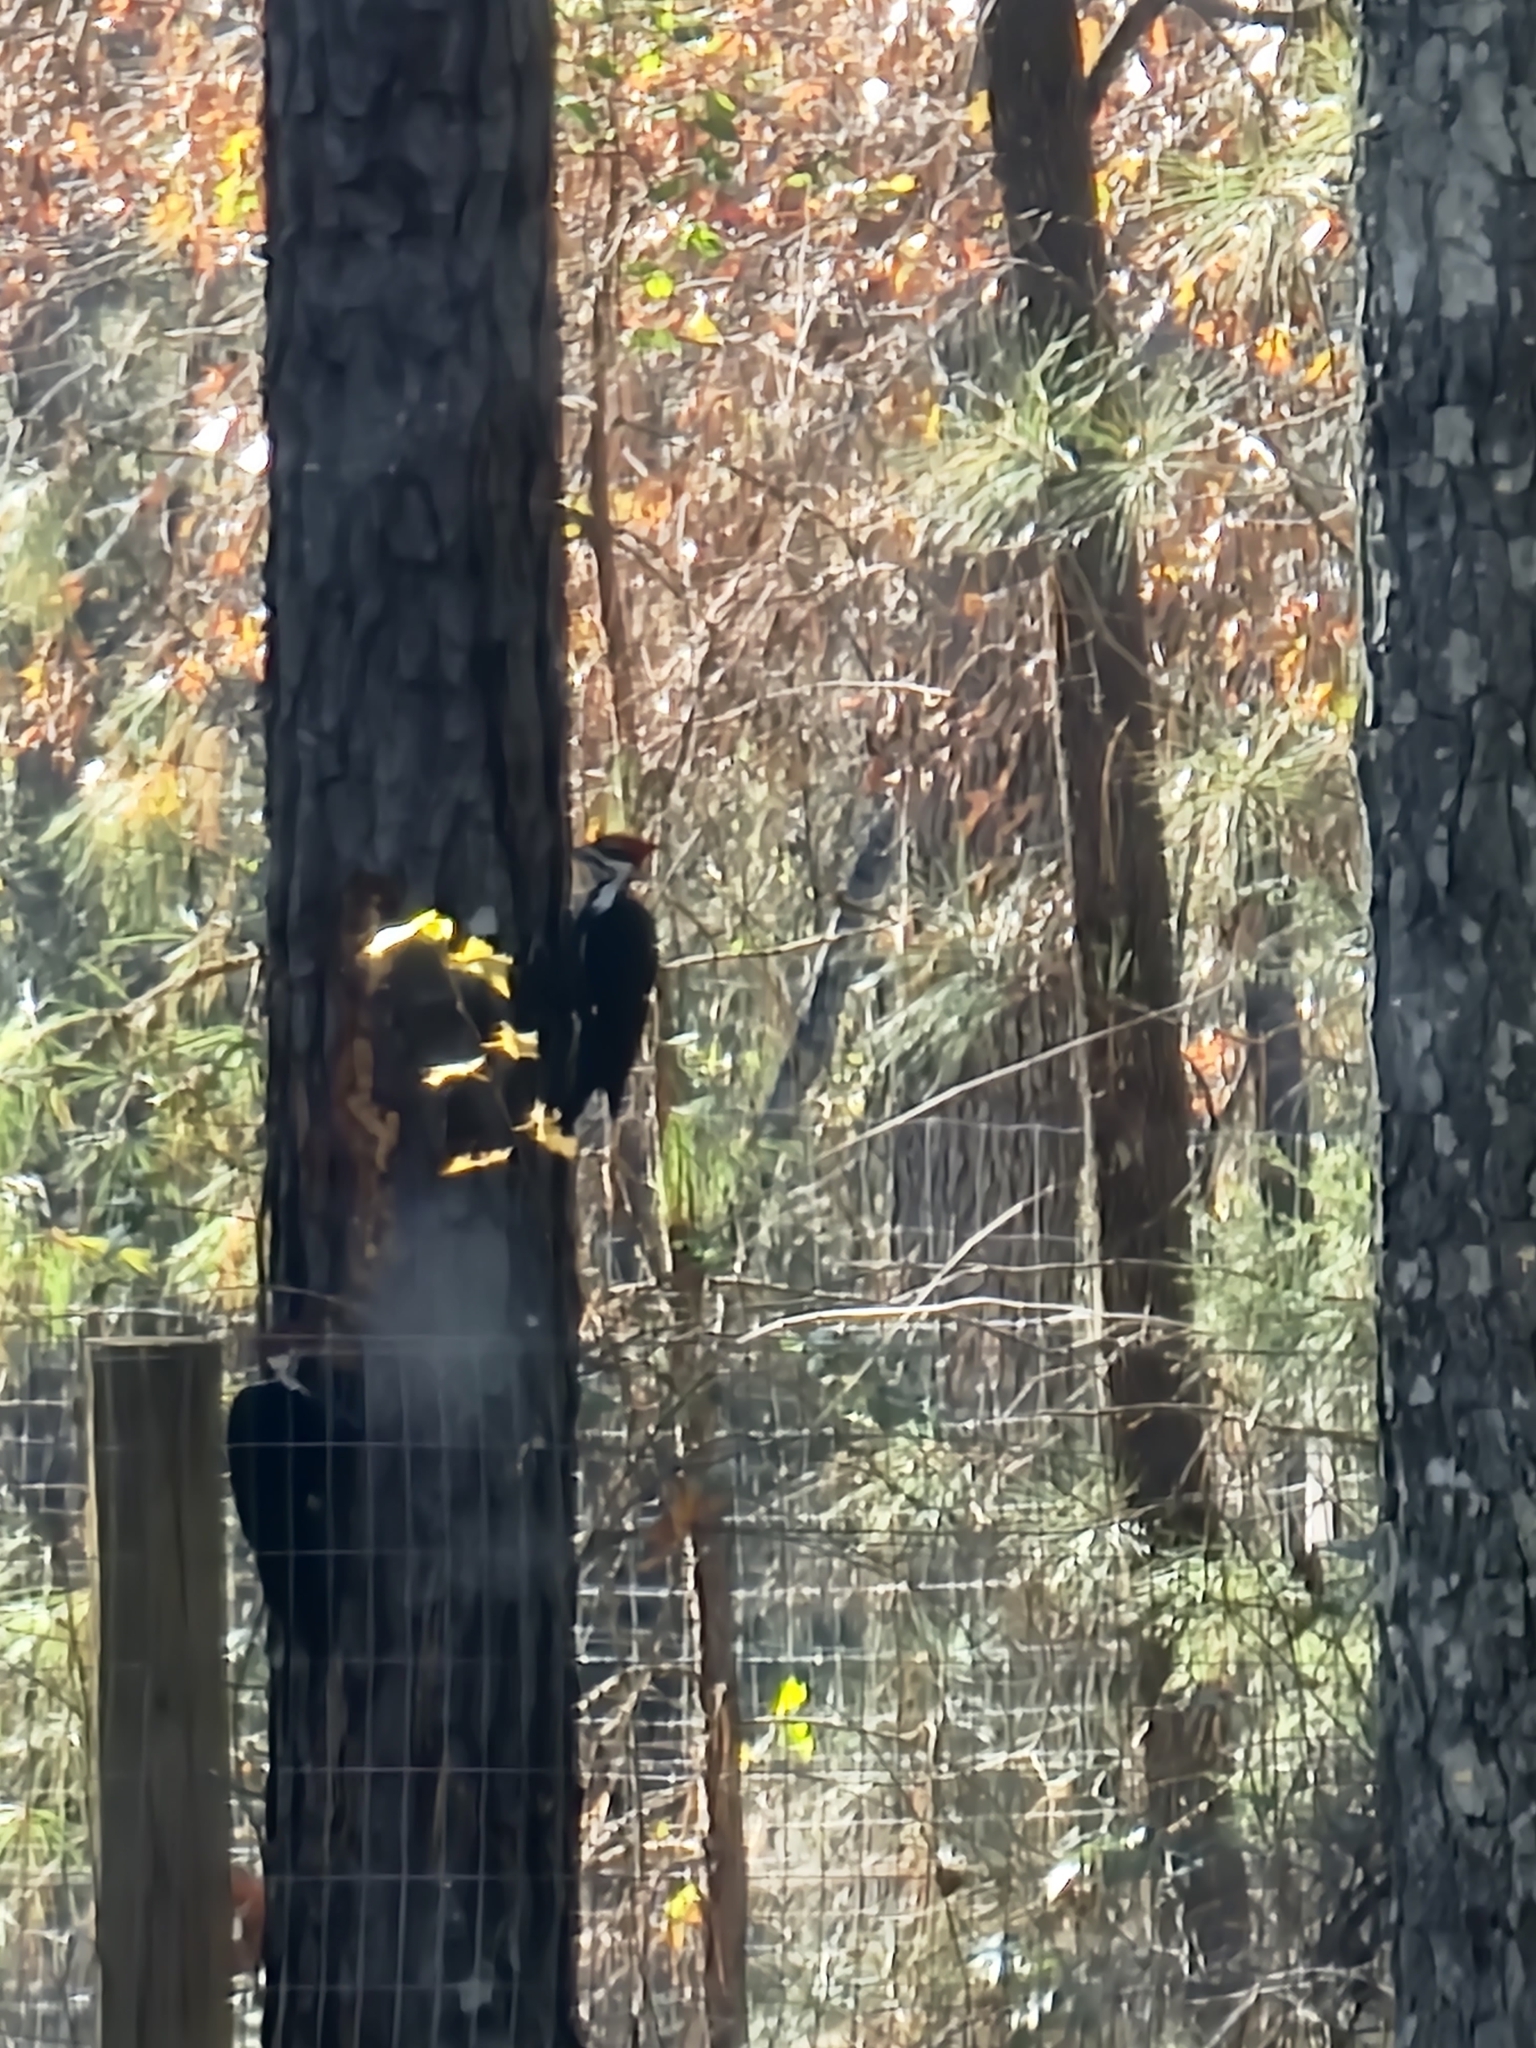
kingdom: Animalia
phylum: Chordata
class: Aves
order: Piciformes
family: Picidae
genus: Dryocopus
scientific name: Dryocopus pileatus
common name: Pileated woodpecker
